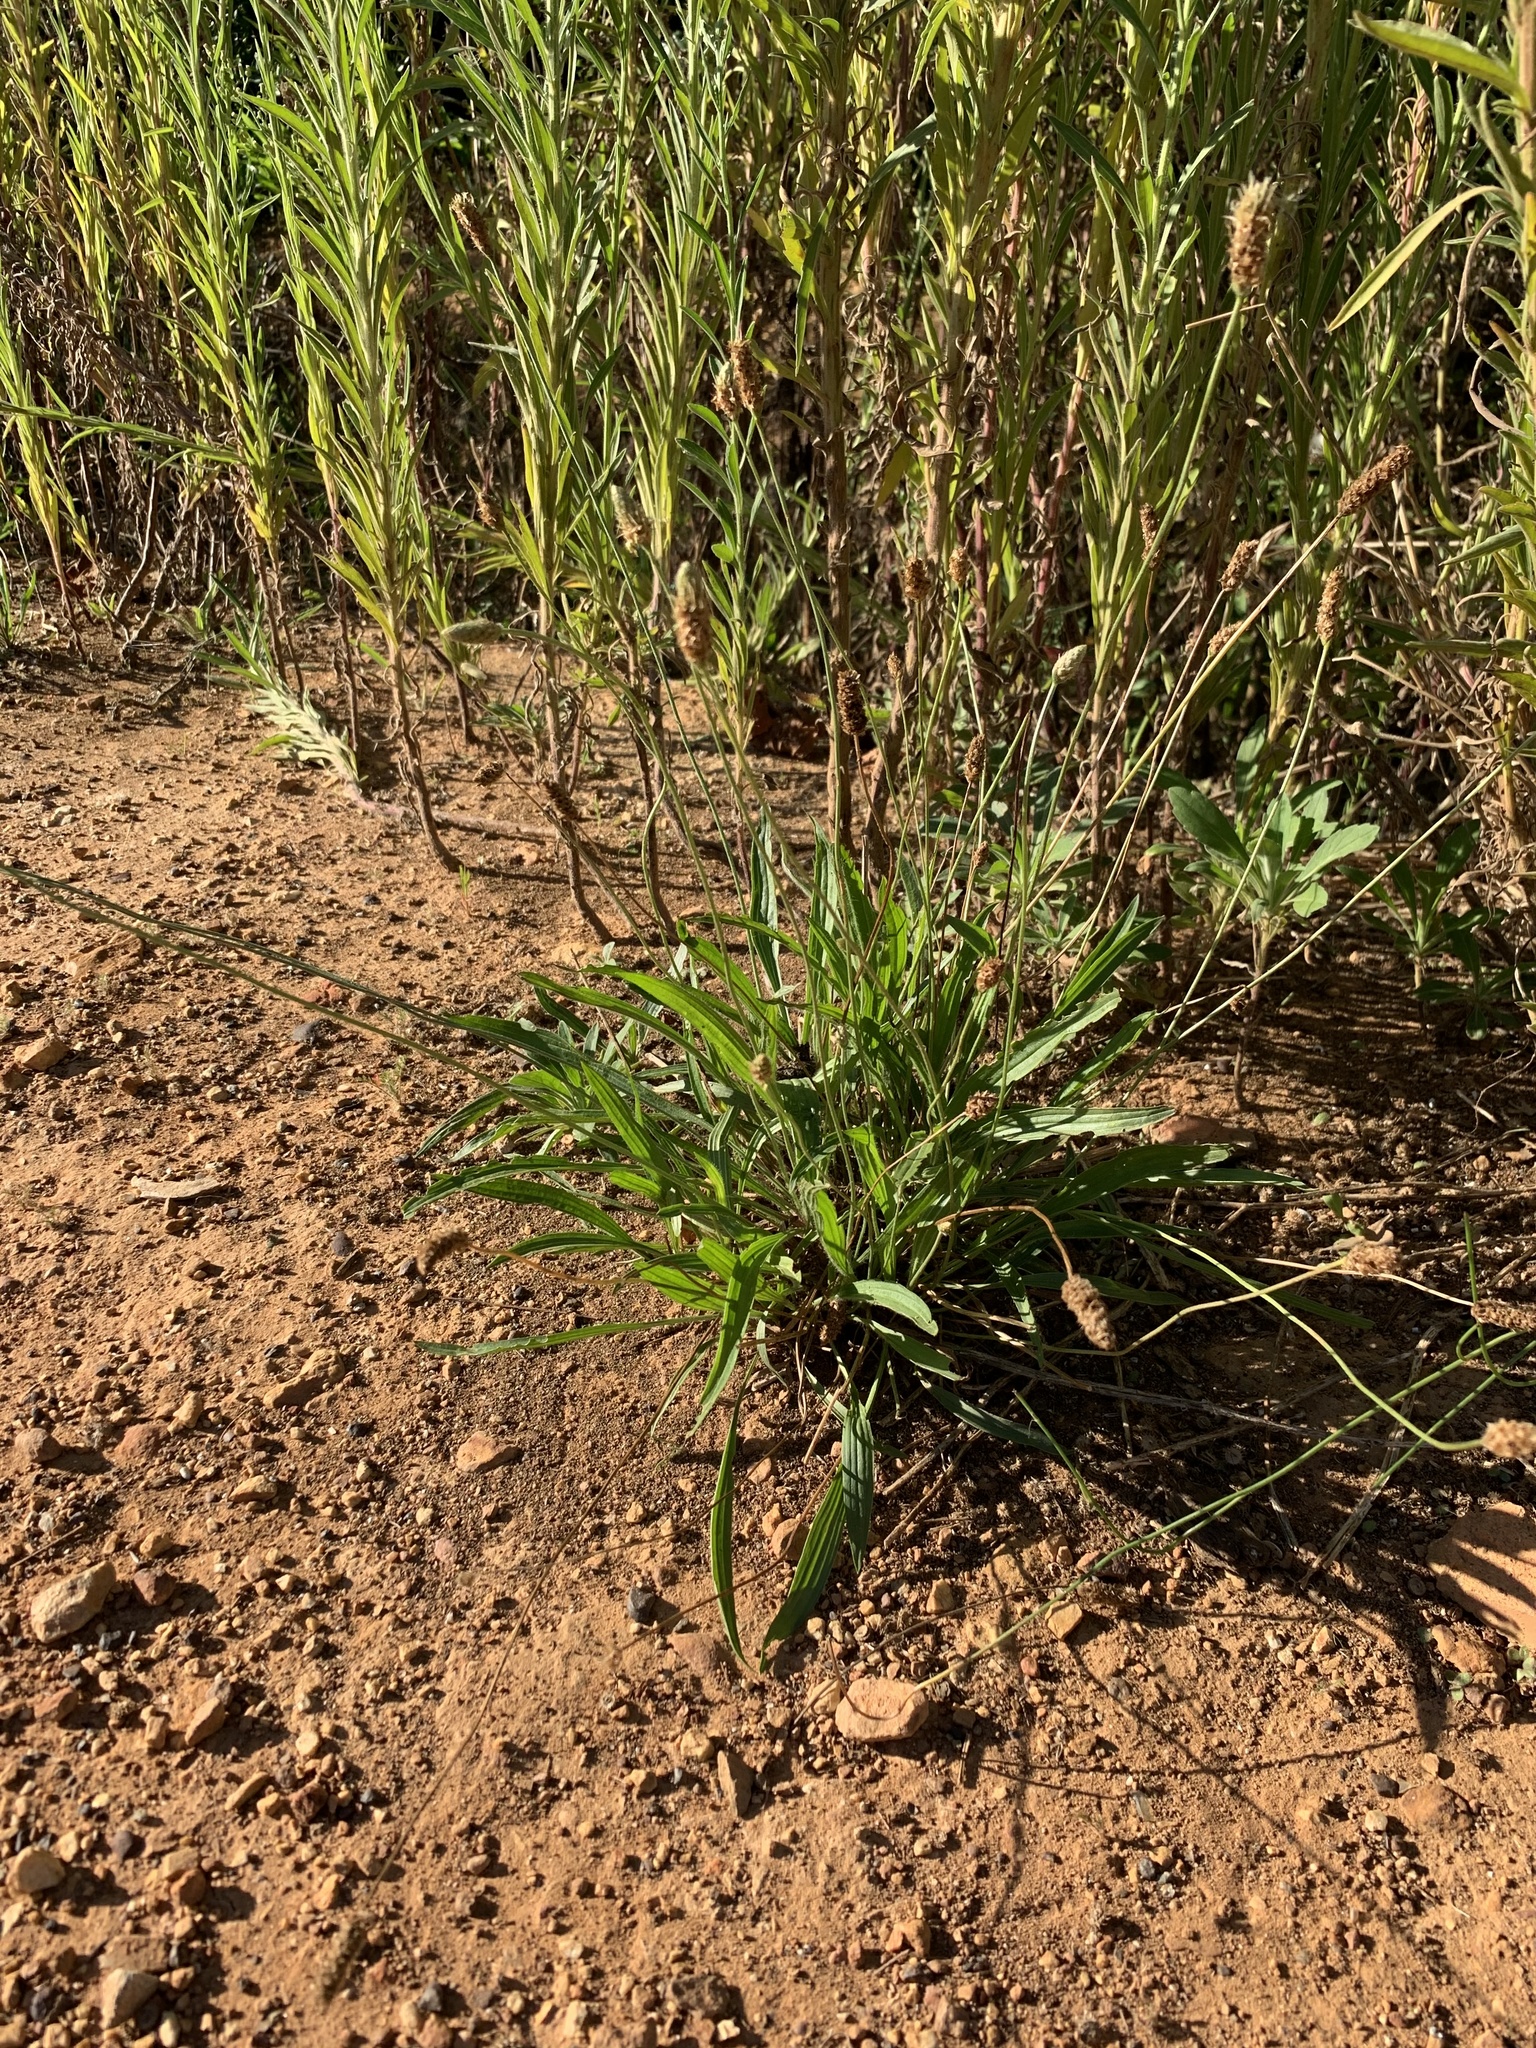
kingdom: Plantae
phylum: Tracheophyta
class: Magnoliopsida
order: Lamiales
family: Plantaginaceae
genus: Plantago
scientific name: Plantago lanceolata
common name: Ribwort plantain
